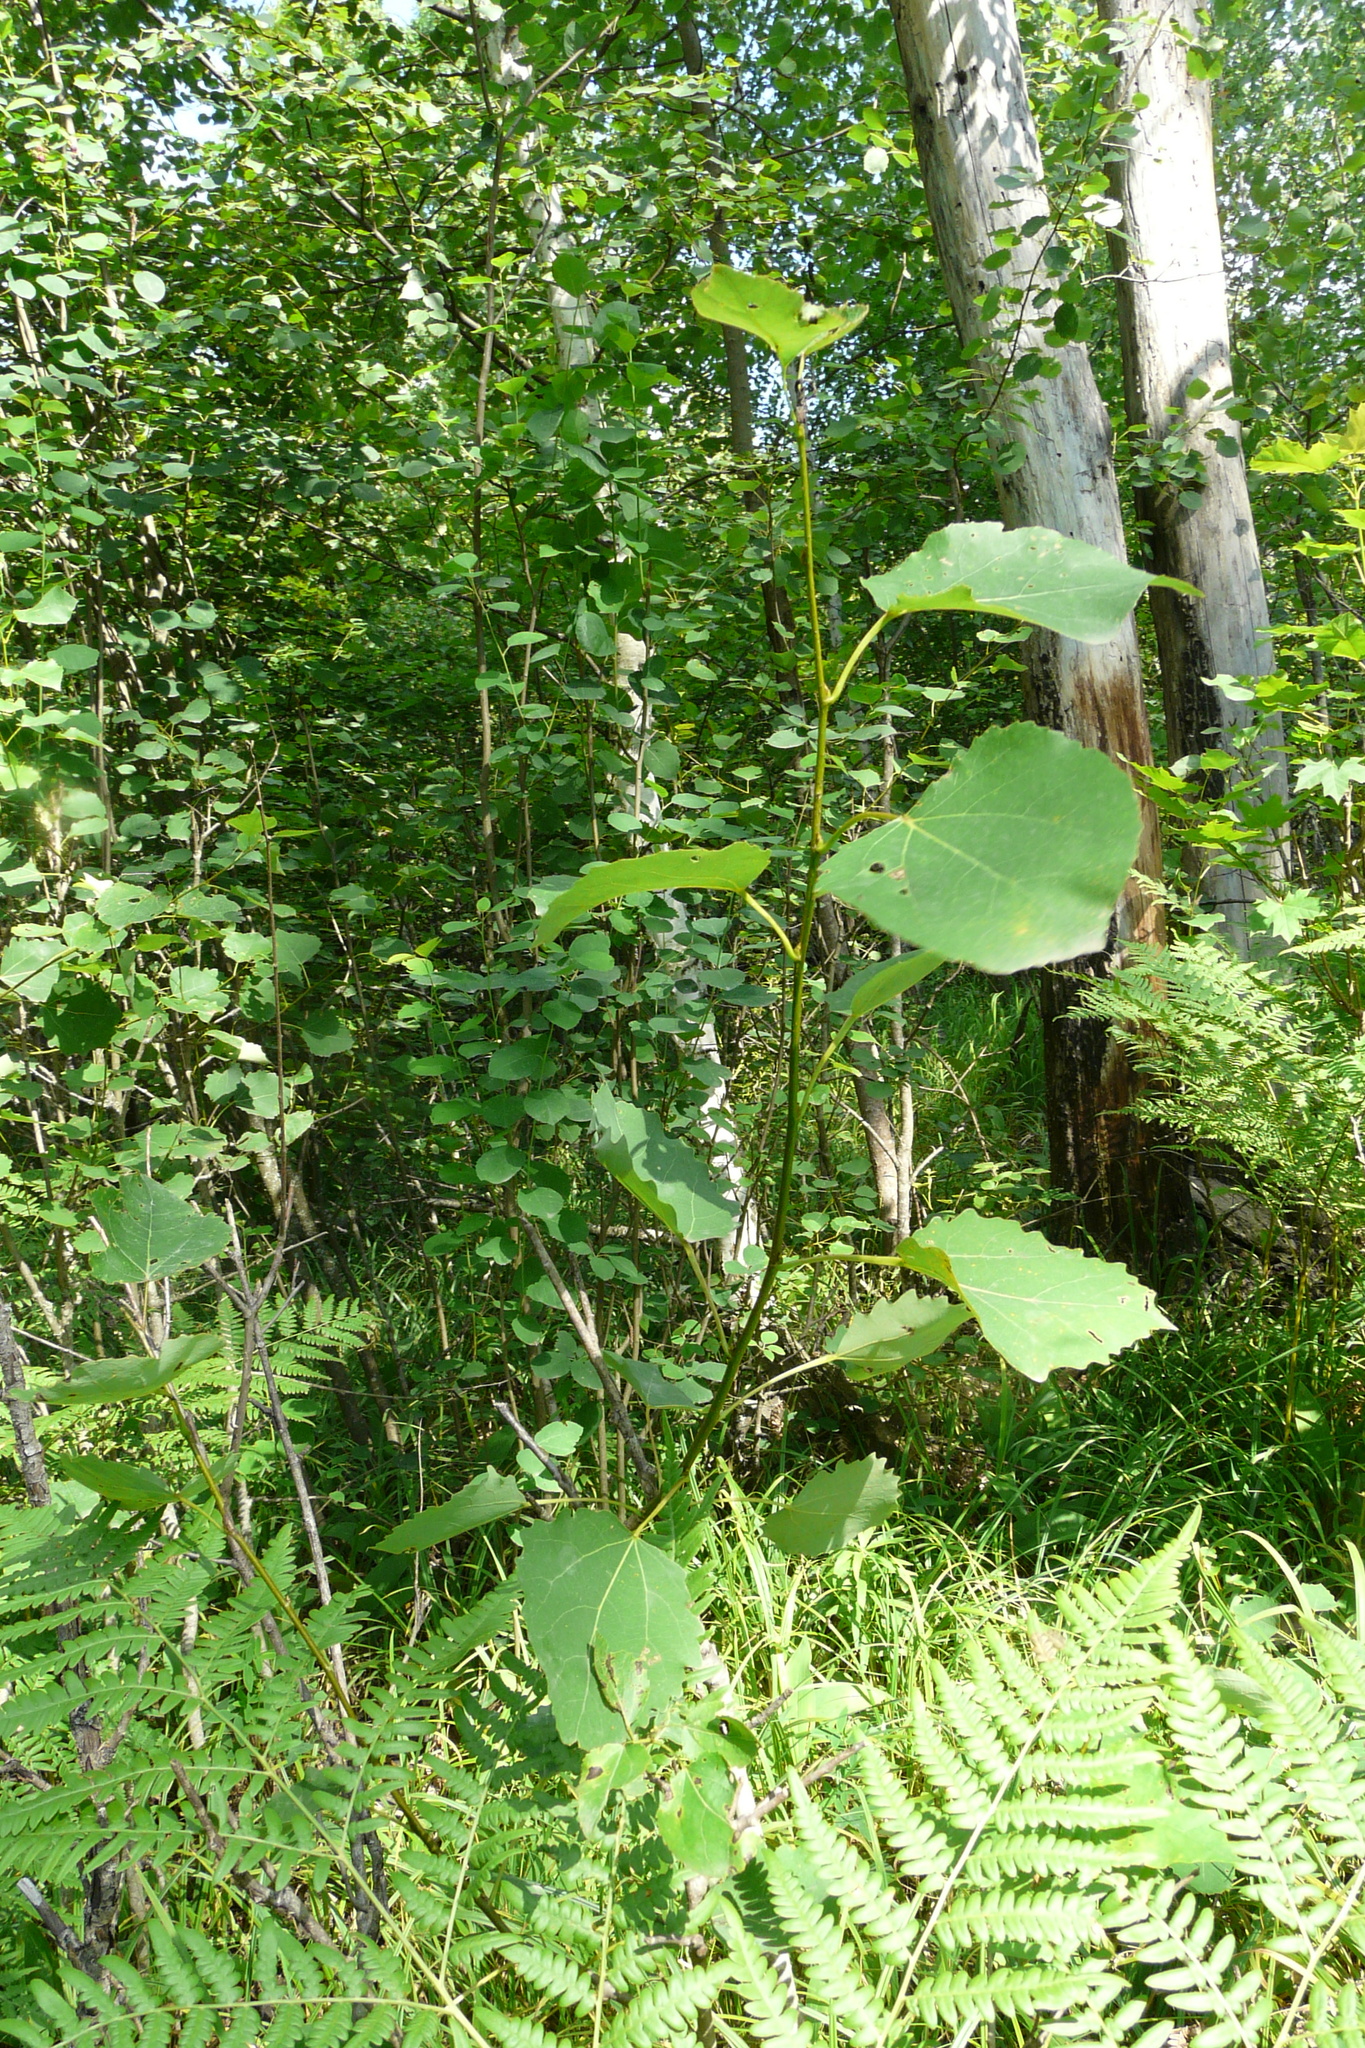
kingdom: Plantae
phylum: Tracheophyta
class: Magnoliopsida
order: Malpighiales
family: Salicaceae
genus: Populus
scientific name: Populus tremula
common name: European aspen
